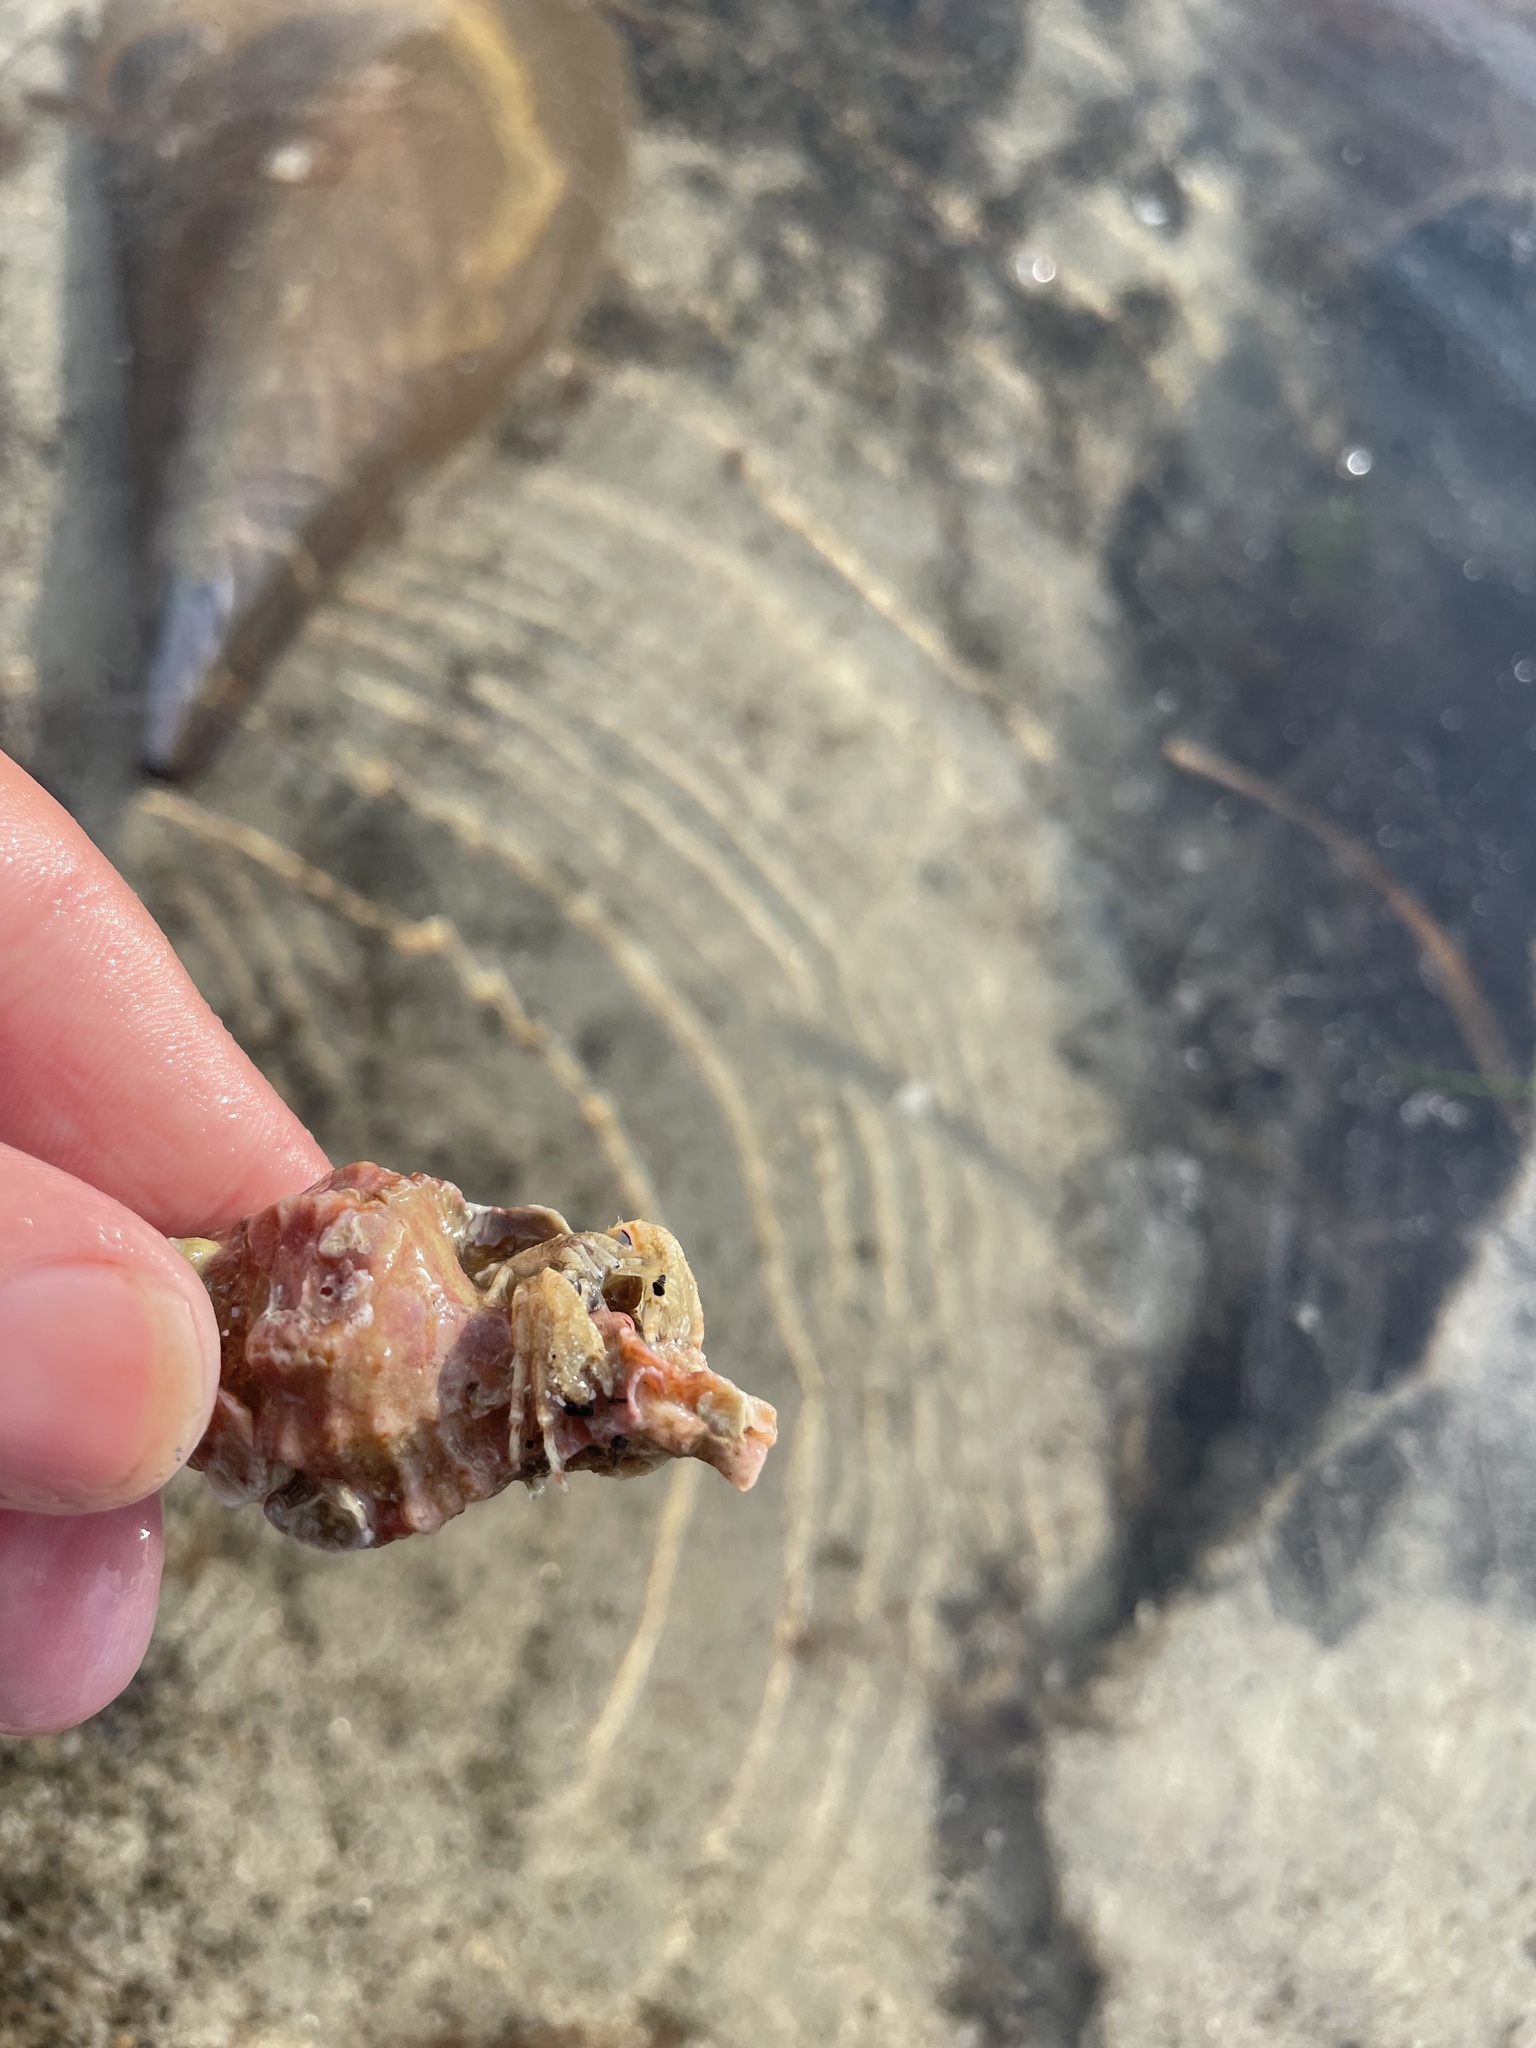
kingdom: Animalia
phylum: Arthropoda
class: Malacostraca
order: Decapoda
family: Diogenidae
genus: Areopaguristes
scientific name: Areopaguristes hummi
